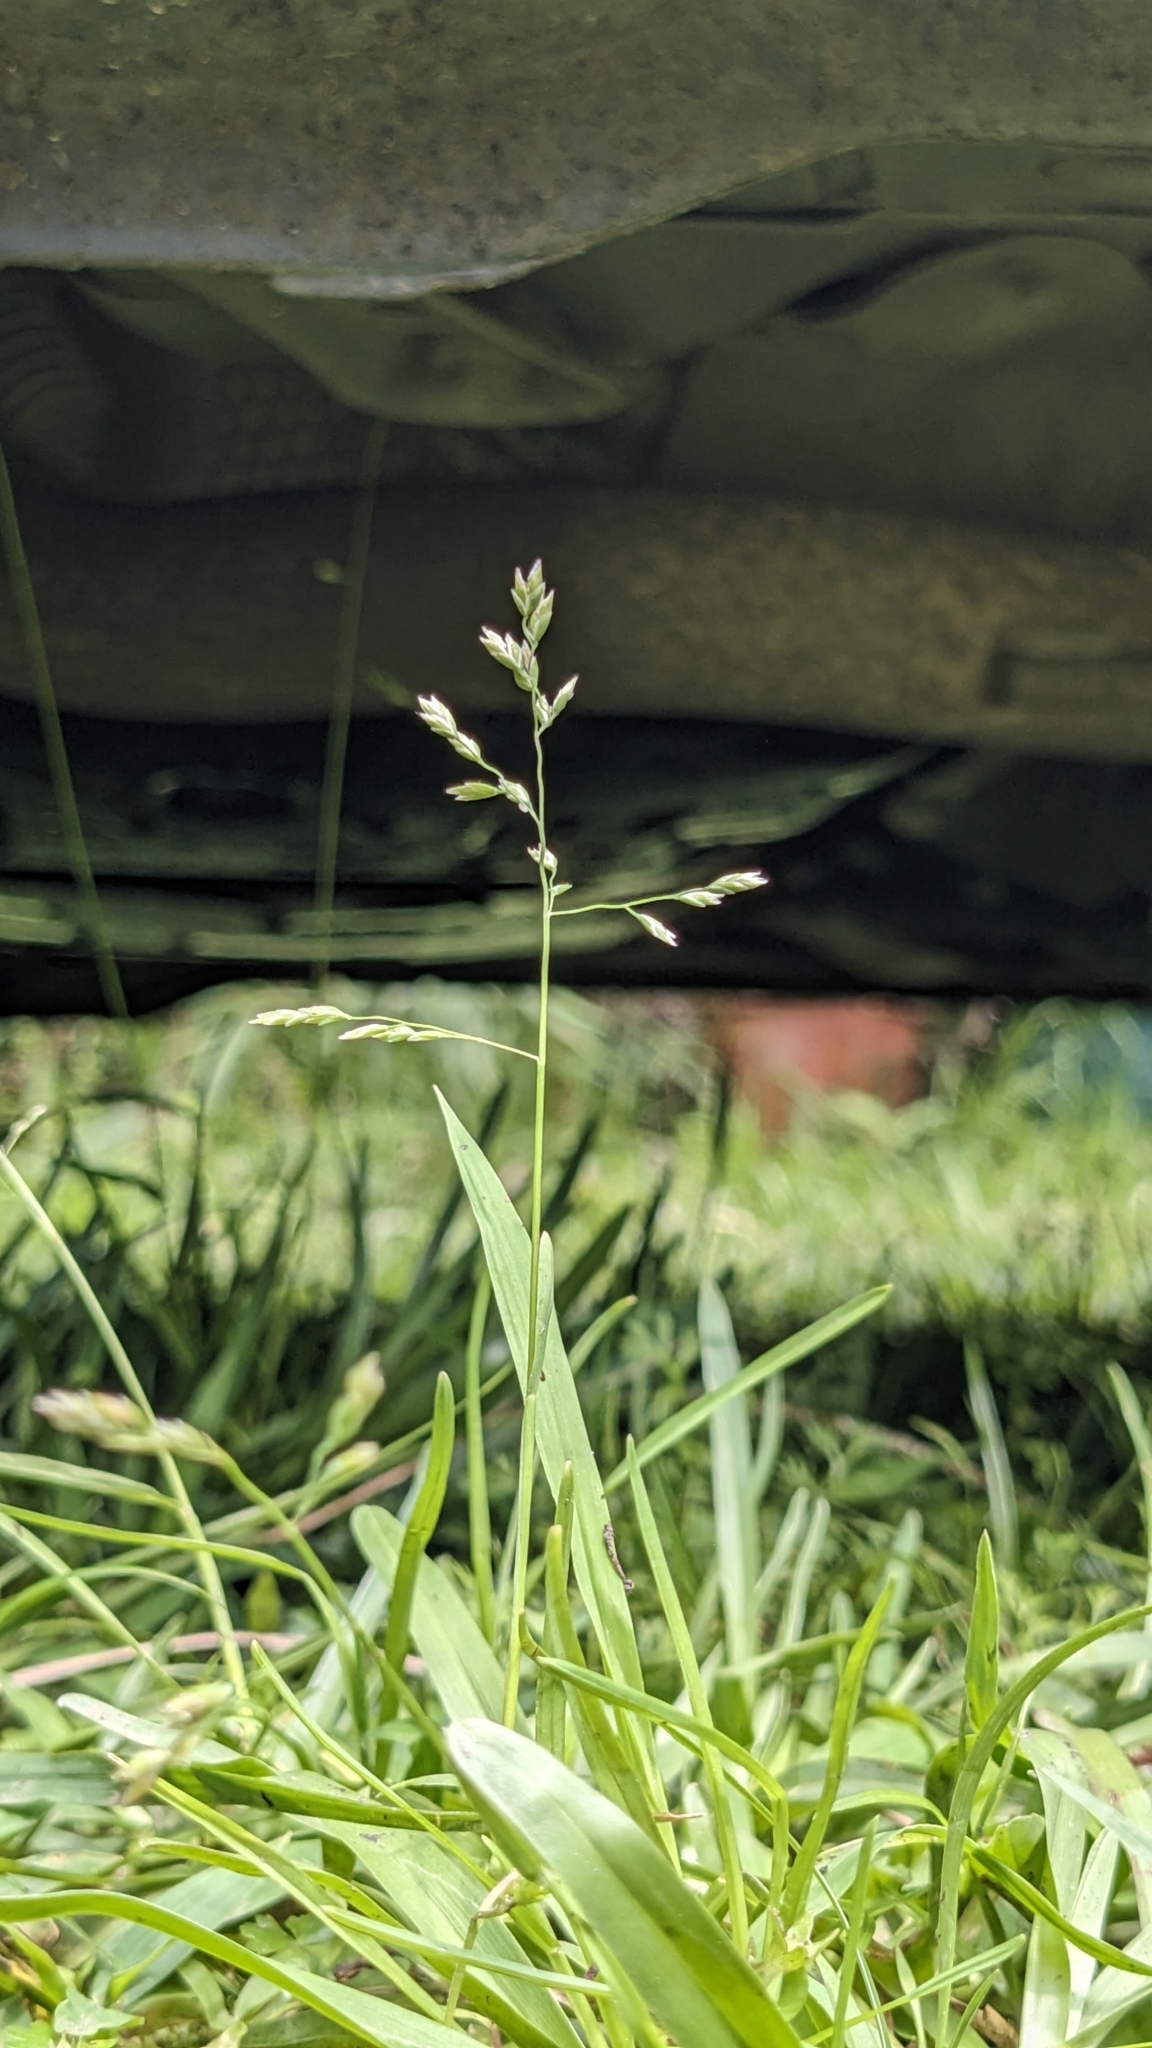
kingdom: Plantae
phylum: Tracheophyta
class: Liliopsida
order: Poales
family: Poaceae
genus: Poa
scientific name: Poa annua
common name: Annual bluegrass
